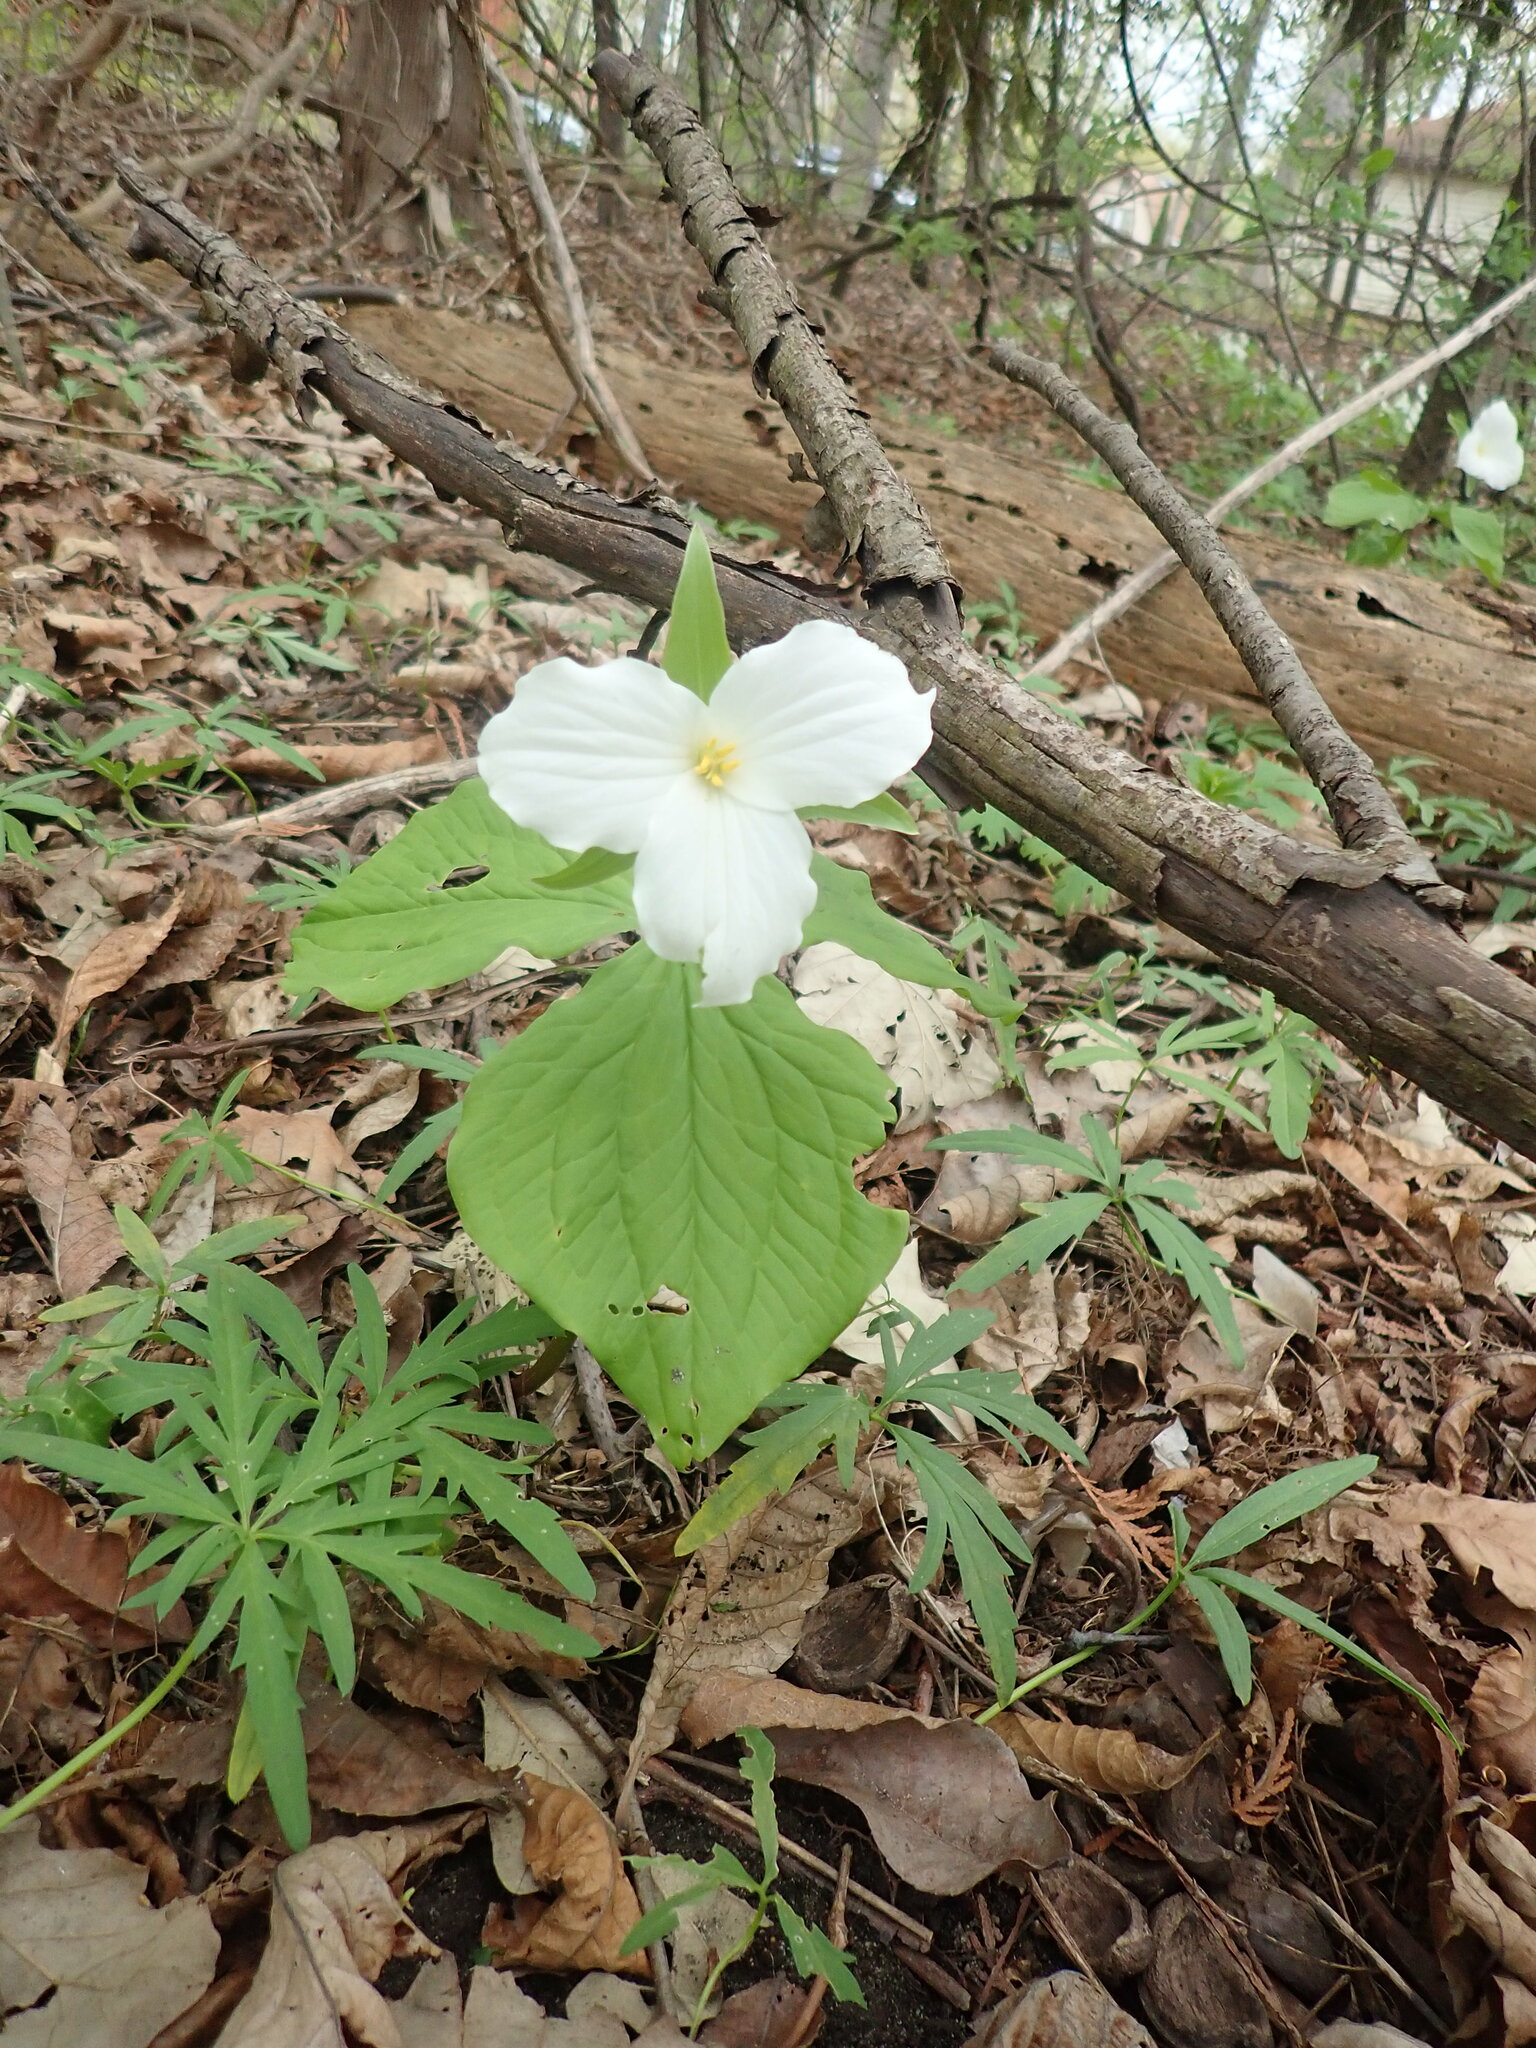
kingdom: Plantae
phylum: Tracheophyta
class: Liliopsida
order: Liliales
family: Melanthiaceae
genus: Trillium
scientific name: Trillium grandiflorum
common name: Great white trillium
